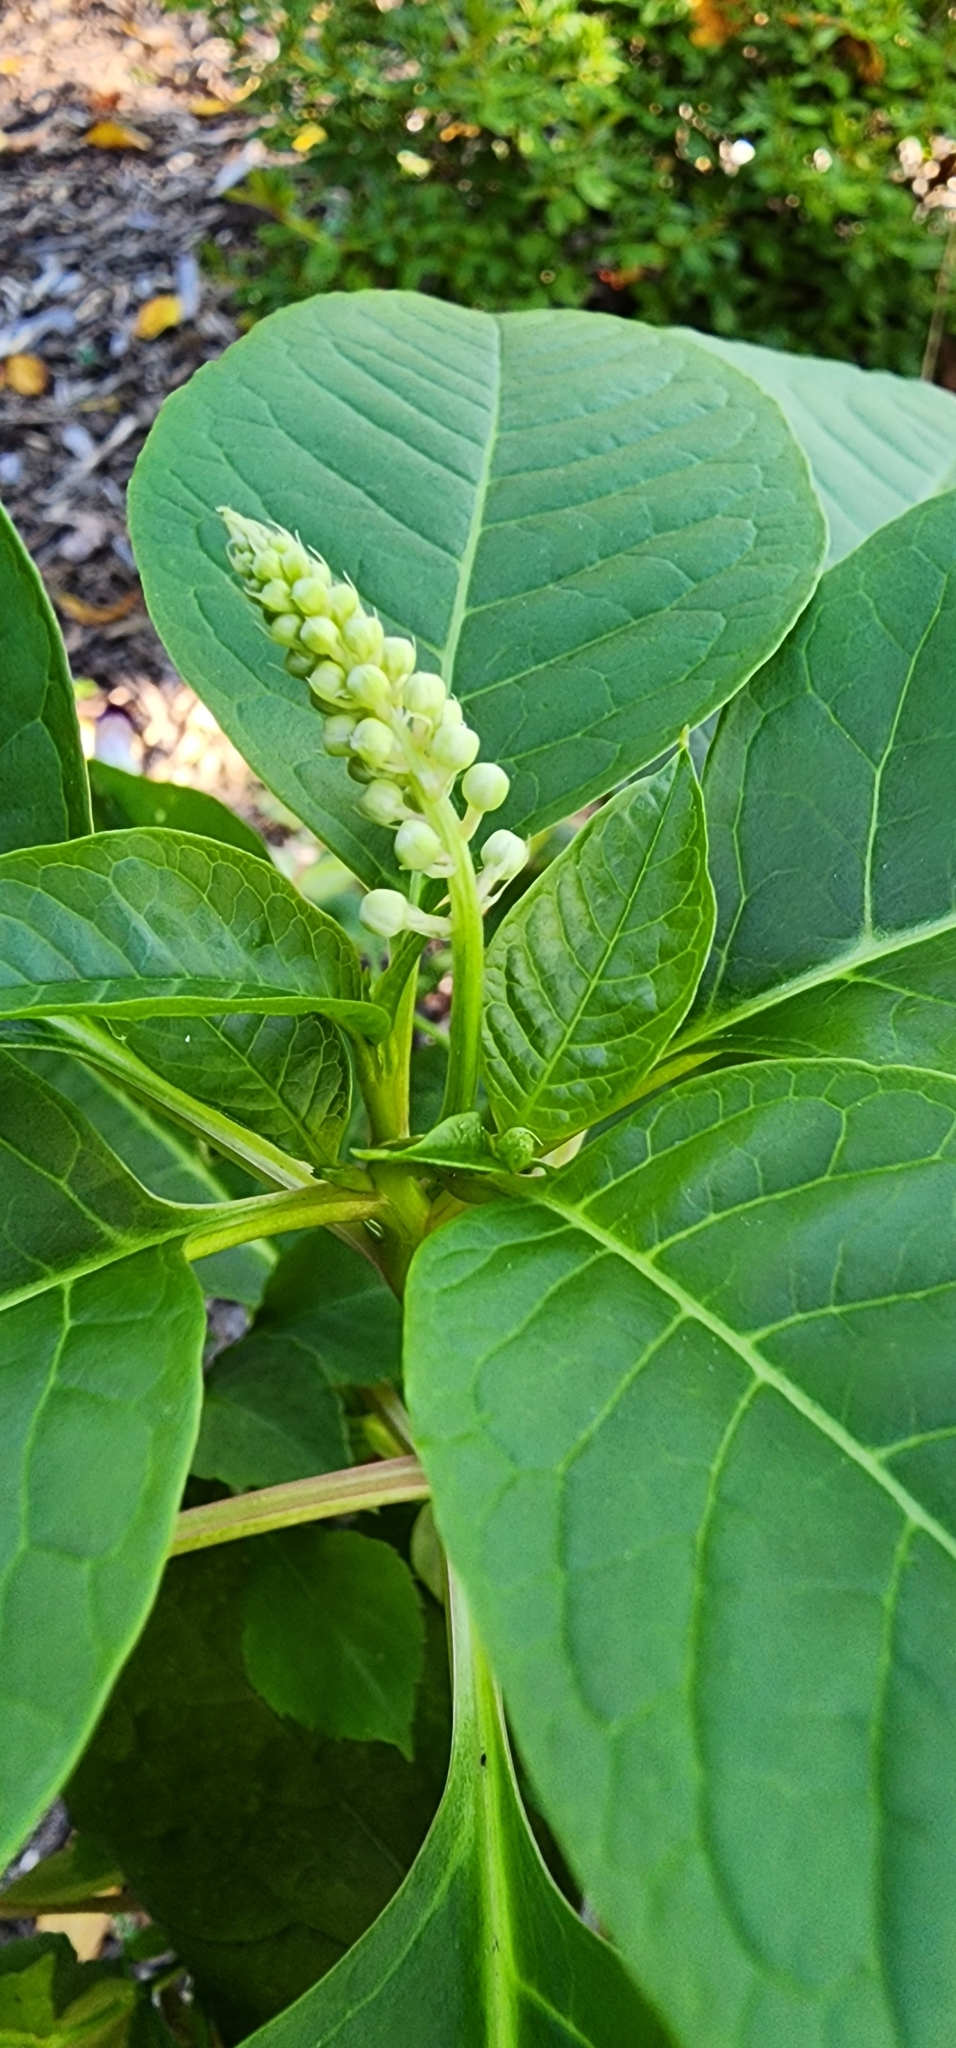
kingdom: Plantae
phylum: Tracheophyta
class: Magnoliopsida
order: Caryophyllales
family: Phytolaccaceae
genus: Phytolacca
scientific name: Phytolacca americana
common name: American pokeweed
